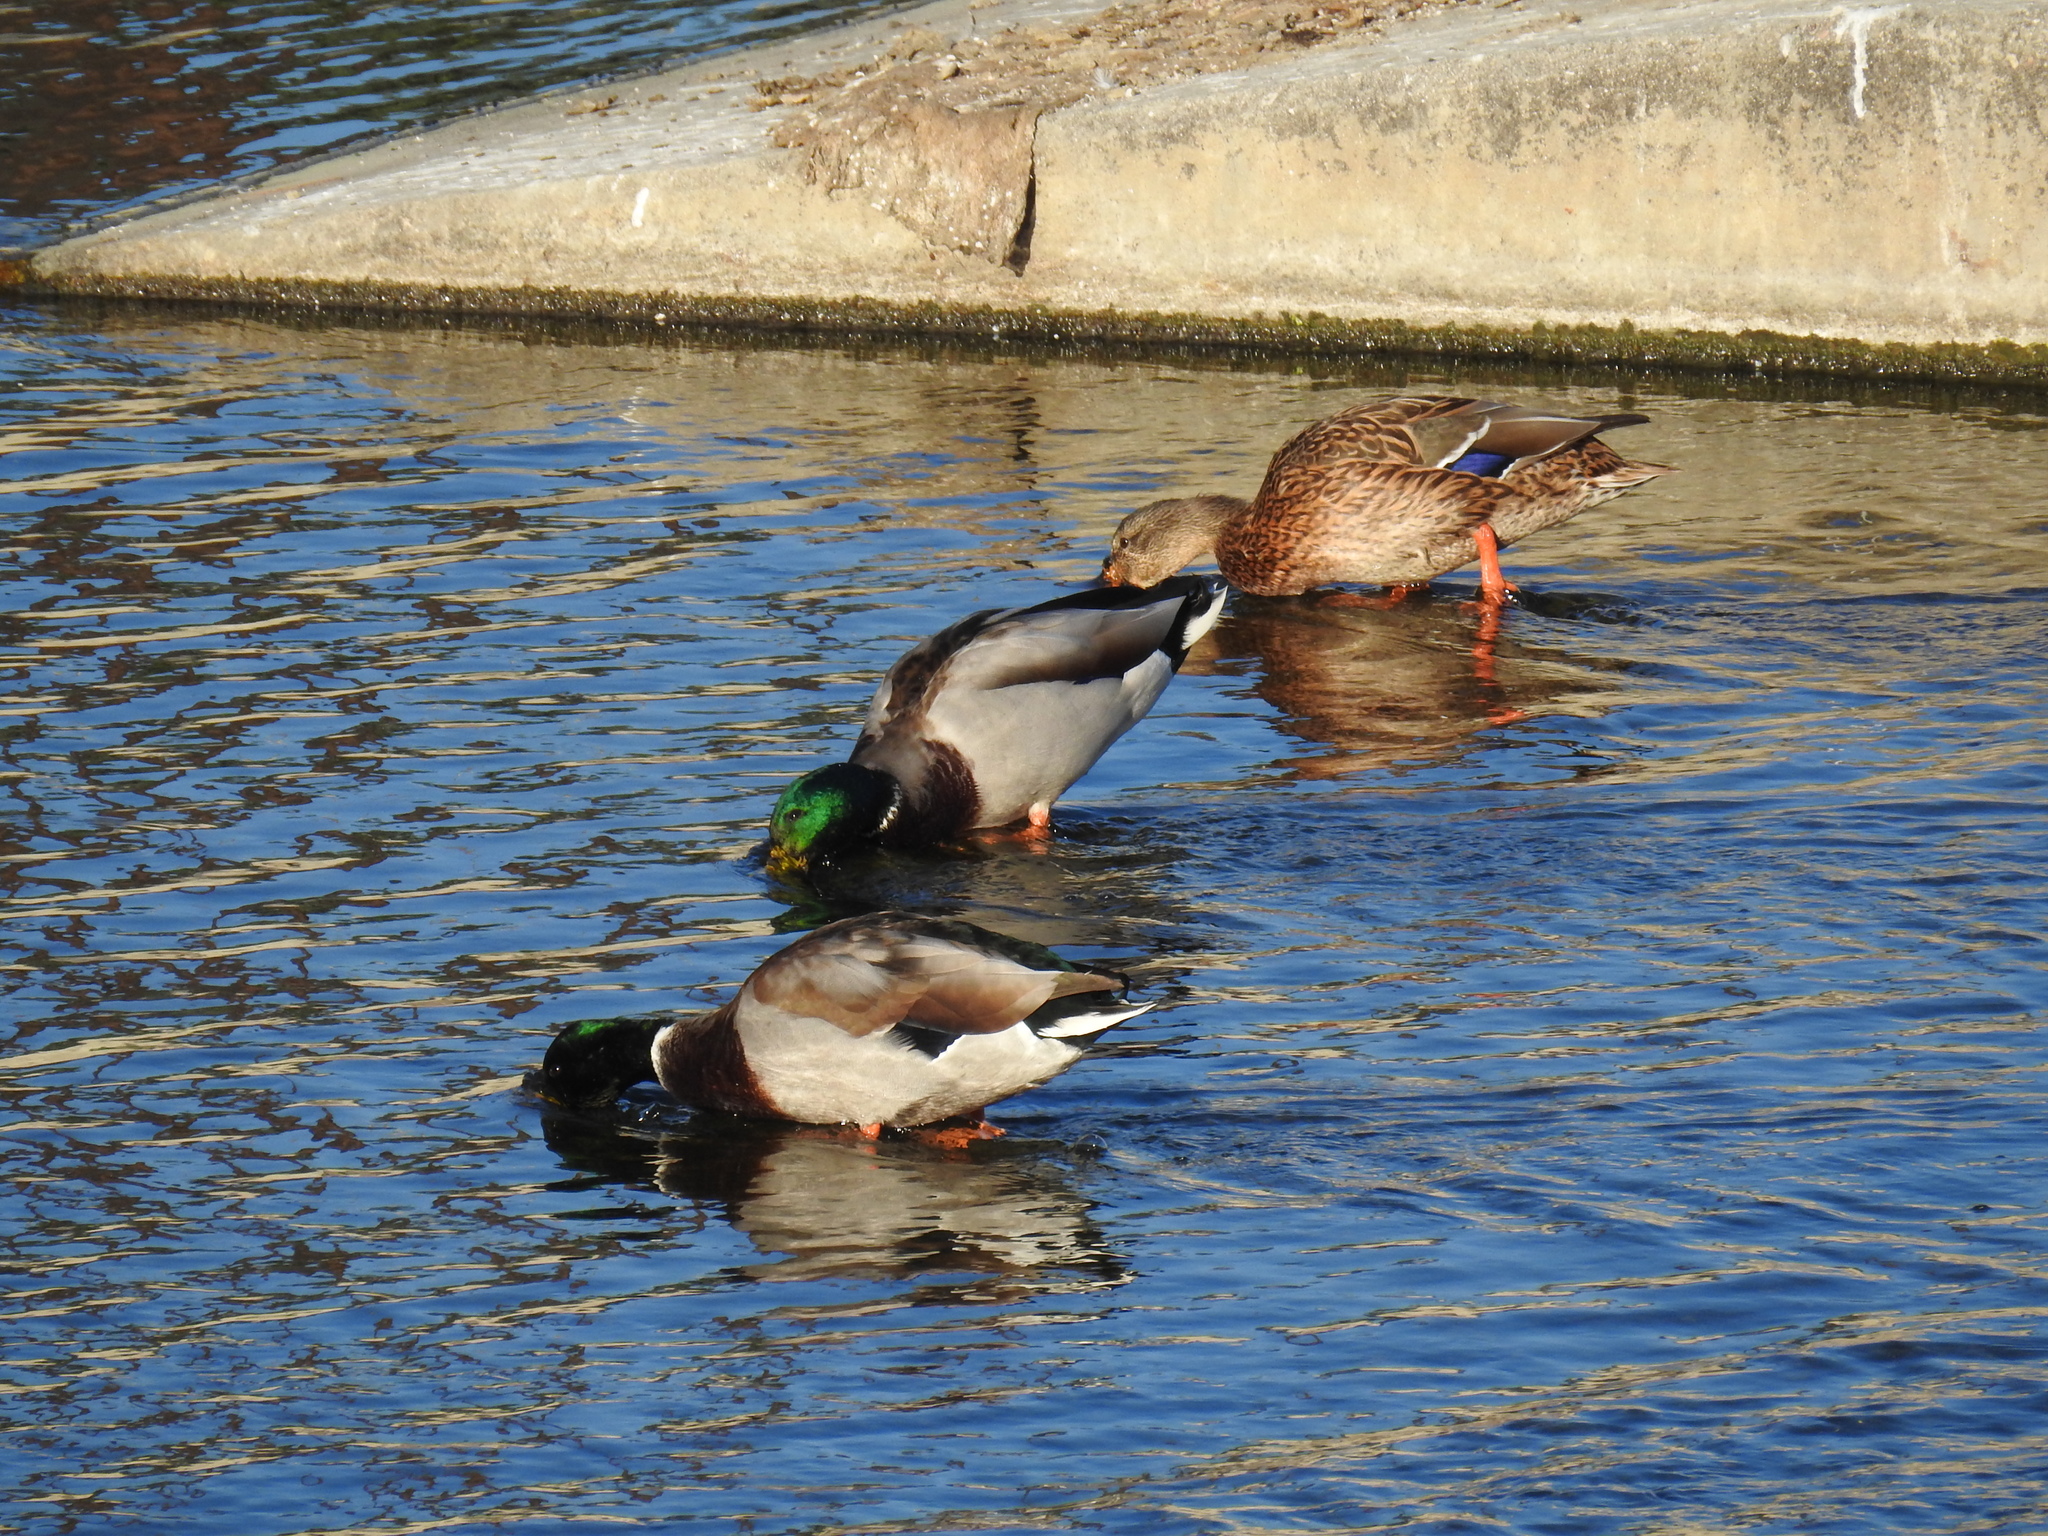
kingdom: Animalia
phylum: Chordata
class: Aves
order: Anseriformes
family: Anatidae
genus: Anas
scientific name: Anas platyrhynchos
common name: Mallard
